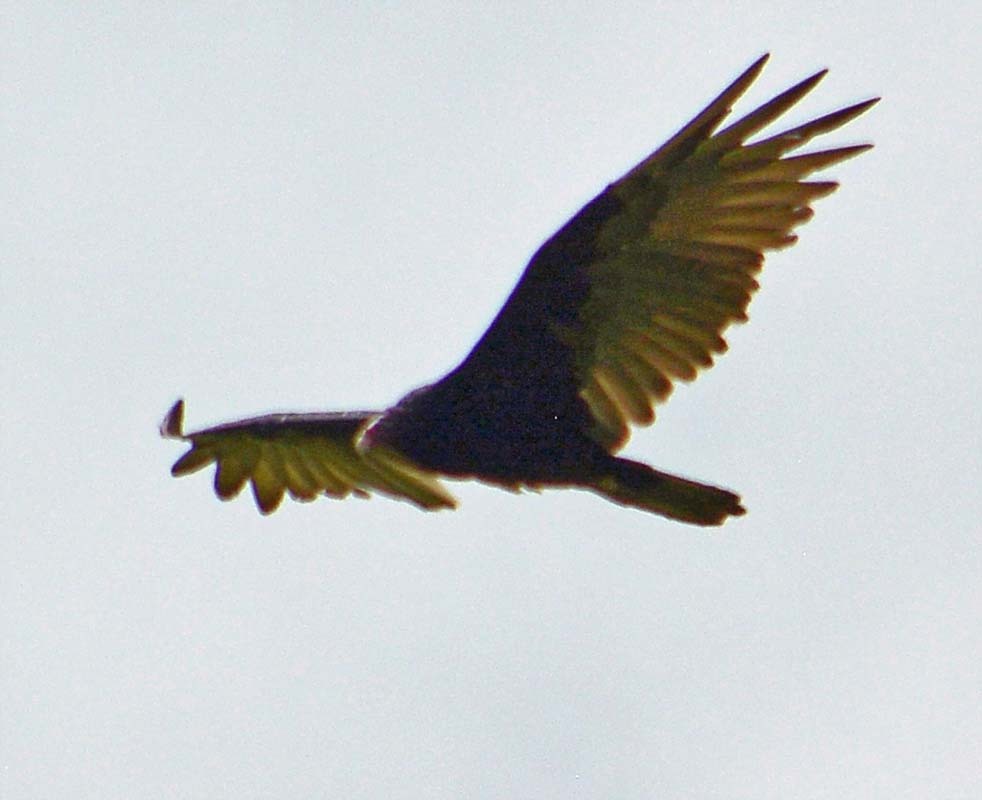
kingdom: Animalia
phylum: Chordata
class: Aves
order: Accipitriformes
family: Cathartidae
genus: Cathartes
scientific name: Cathartes aura
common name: Turkey vulture
